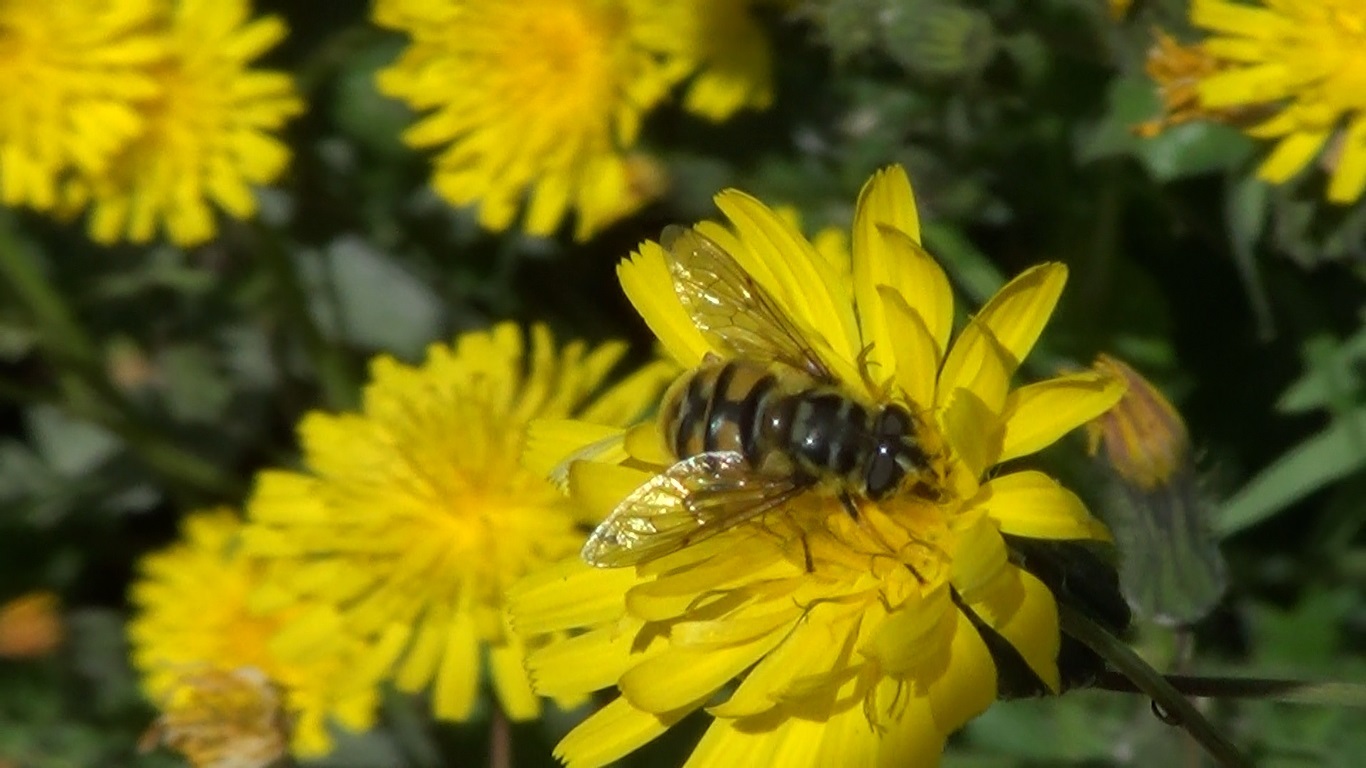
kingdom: Animalia
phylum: Arthropoda
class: Insecta
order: Diptera
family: Syrphidae
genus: Myathropa
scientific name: Myathropa florea
